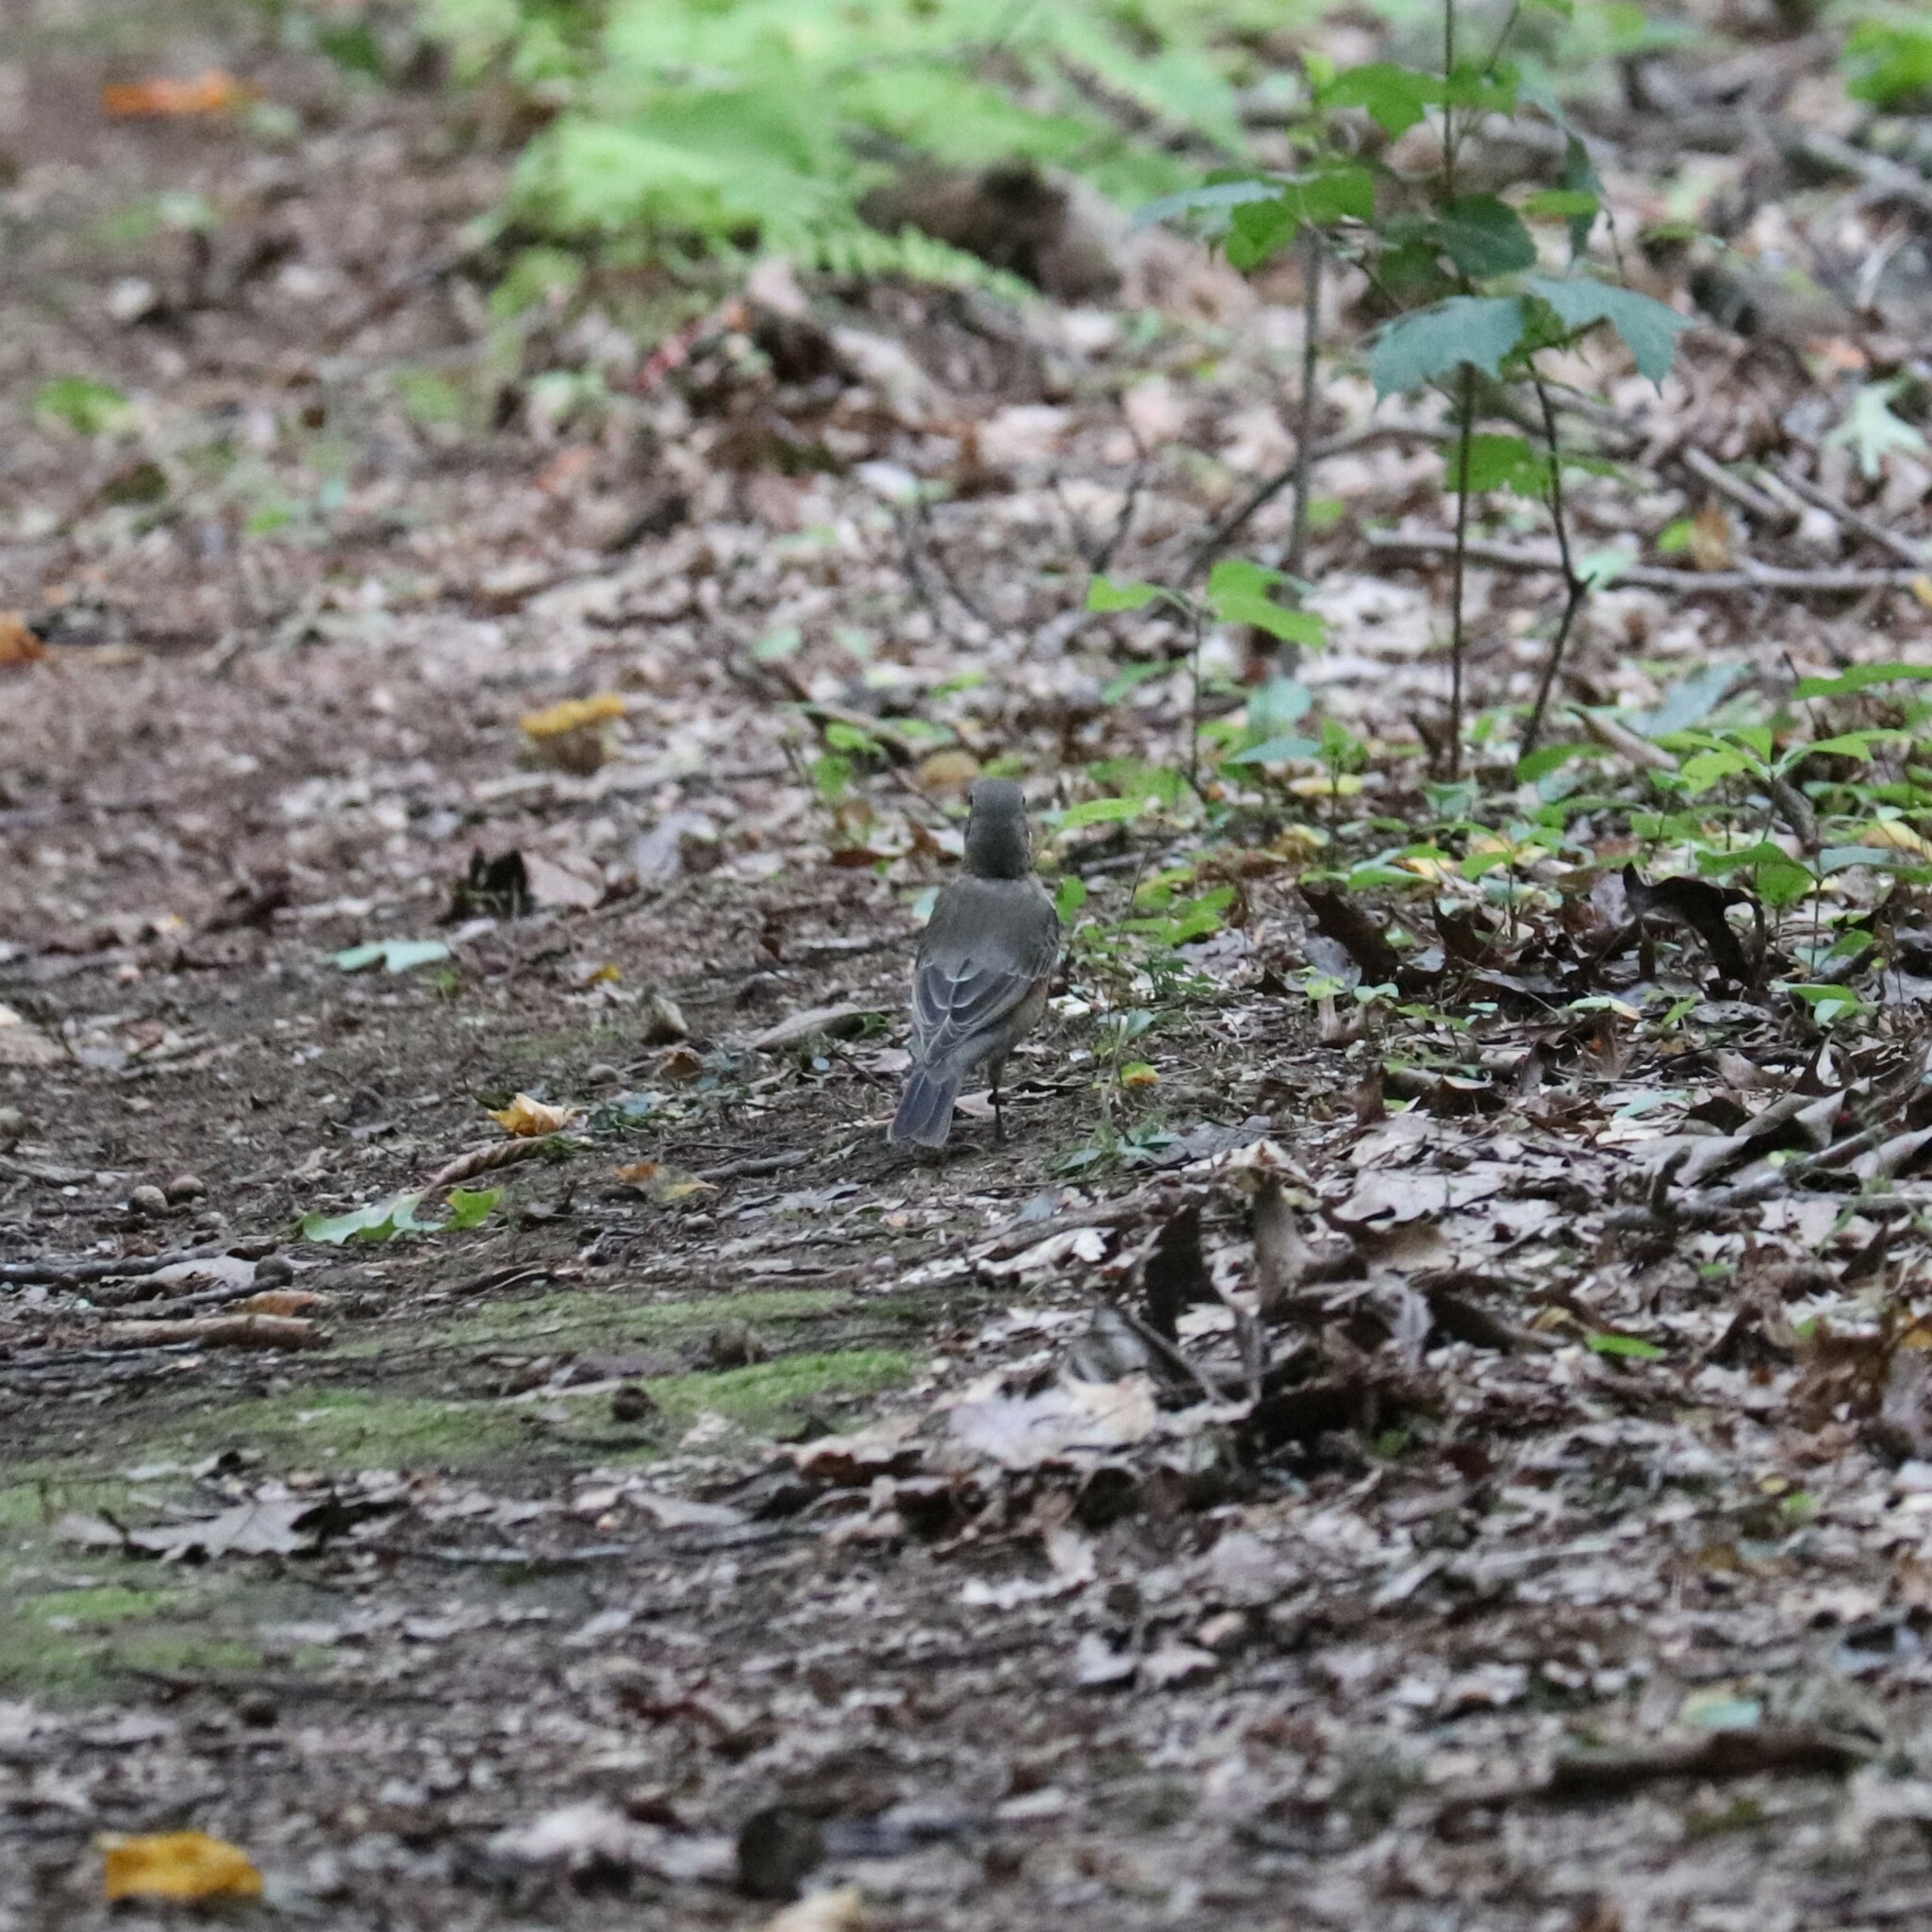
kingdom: Animalia
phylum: Chordata
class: Aves
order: Passeriformes
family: Turdidae
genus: Turdus
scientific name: Turdus migratorius
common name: American robin
